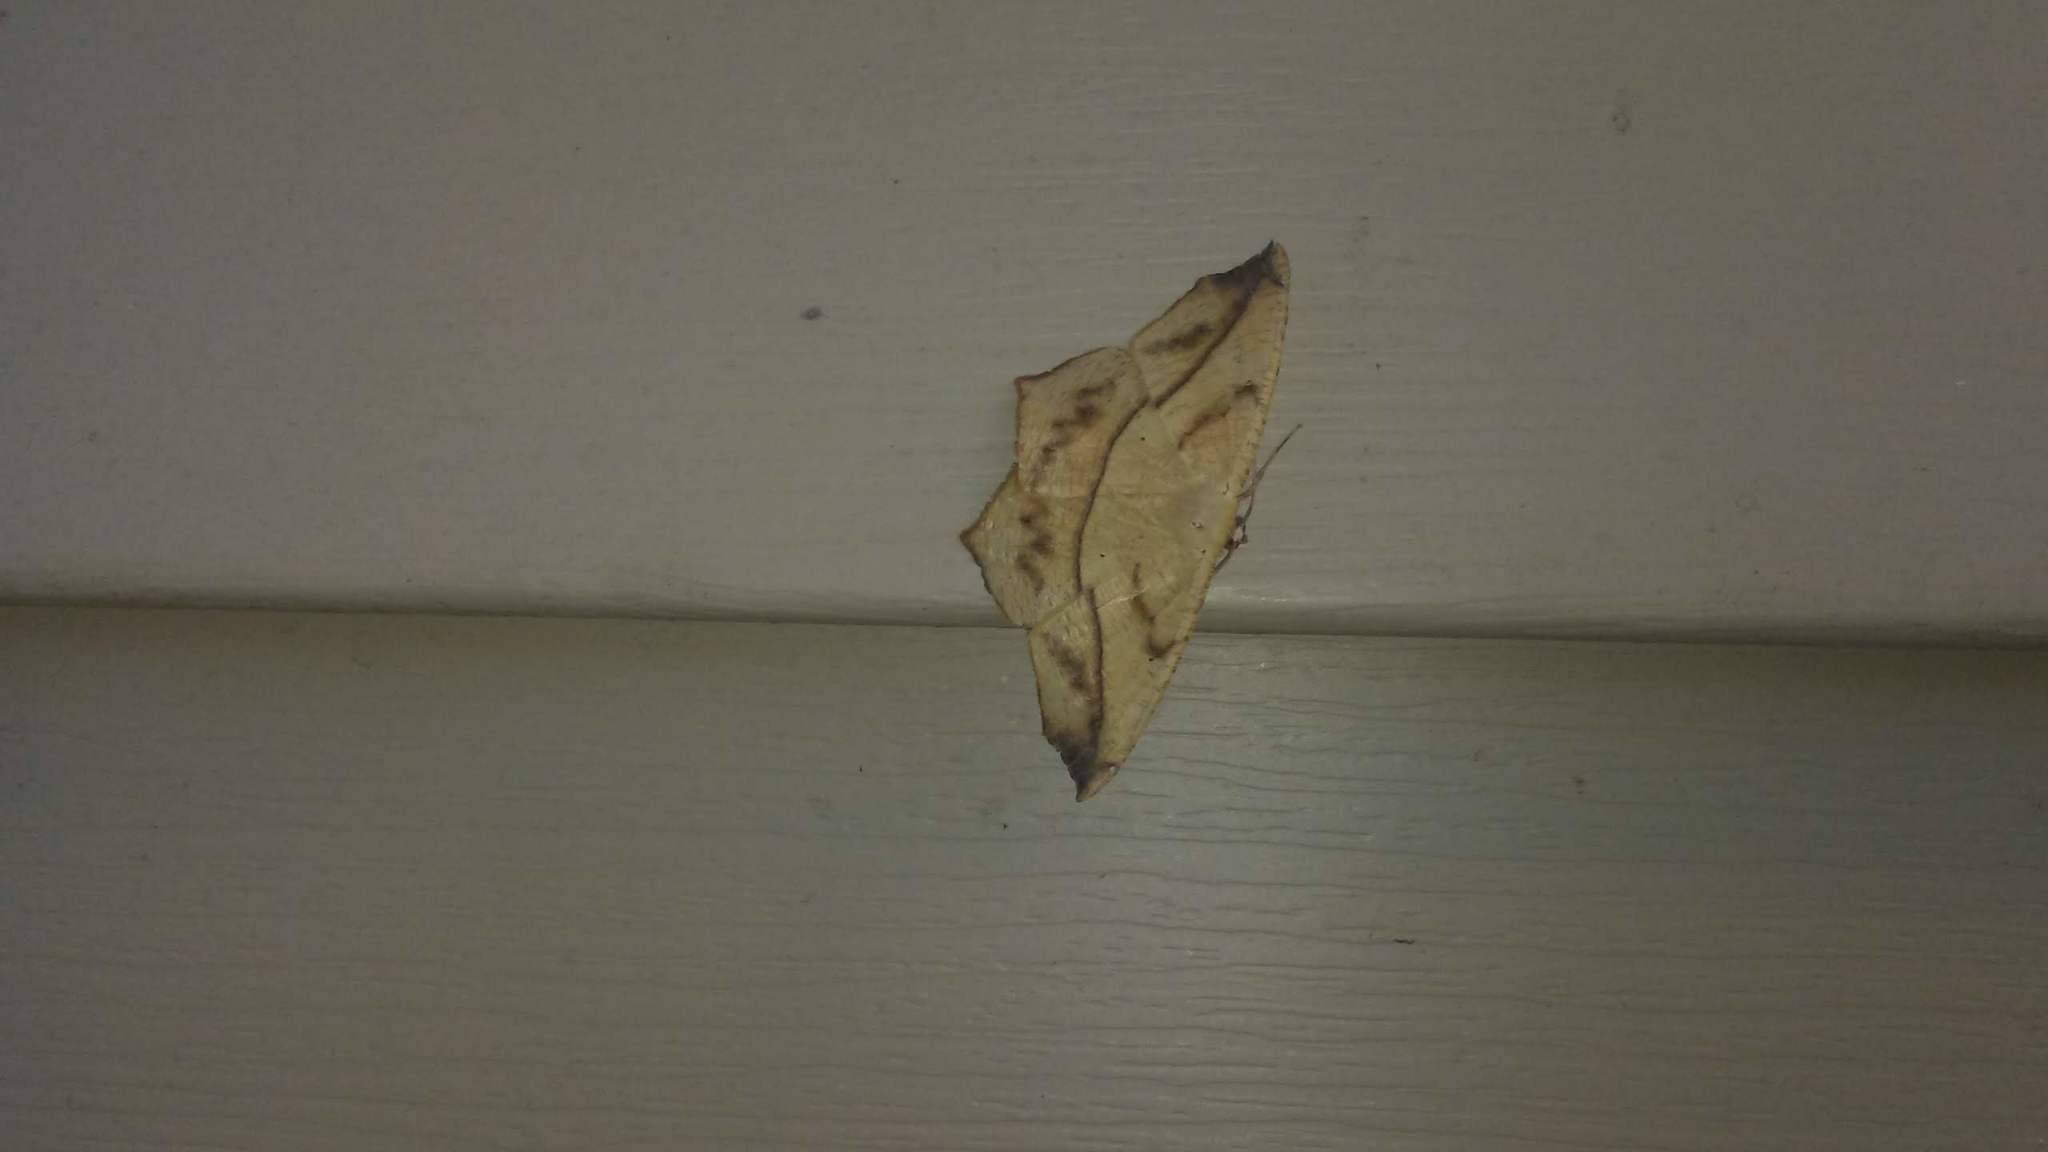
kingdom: Animalia
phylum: Arthropoda
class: Insecta
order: Lepidoptera
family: Geometridae
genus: Prochoerodes
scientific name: Prochoerodes lineola
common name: Large maple spanworm
